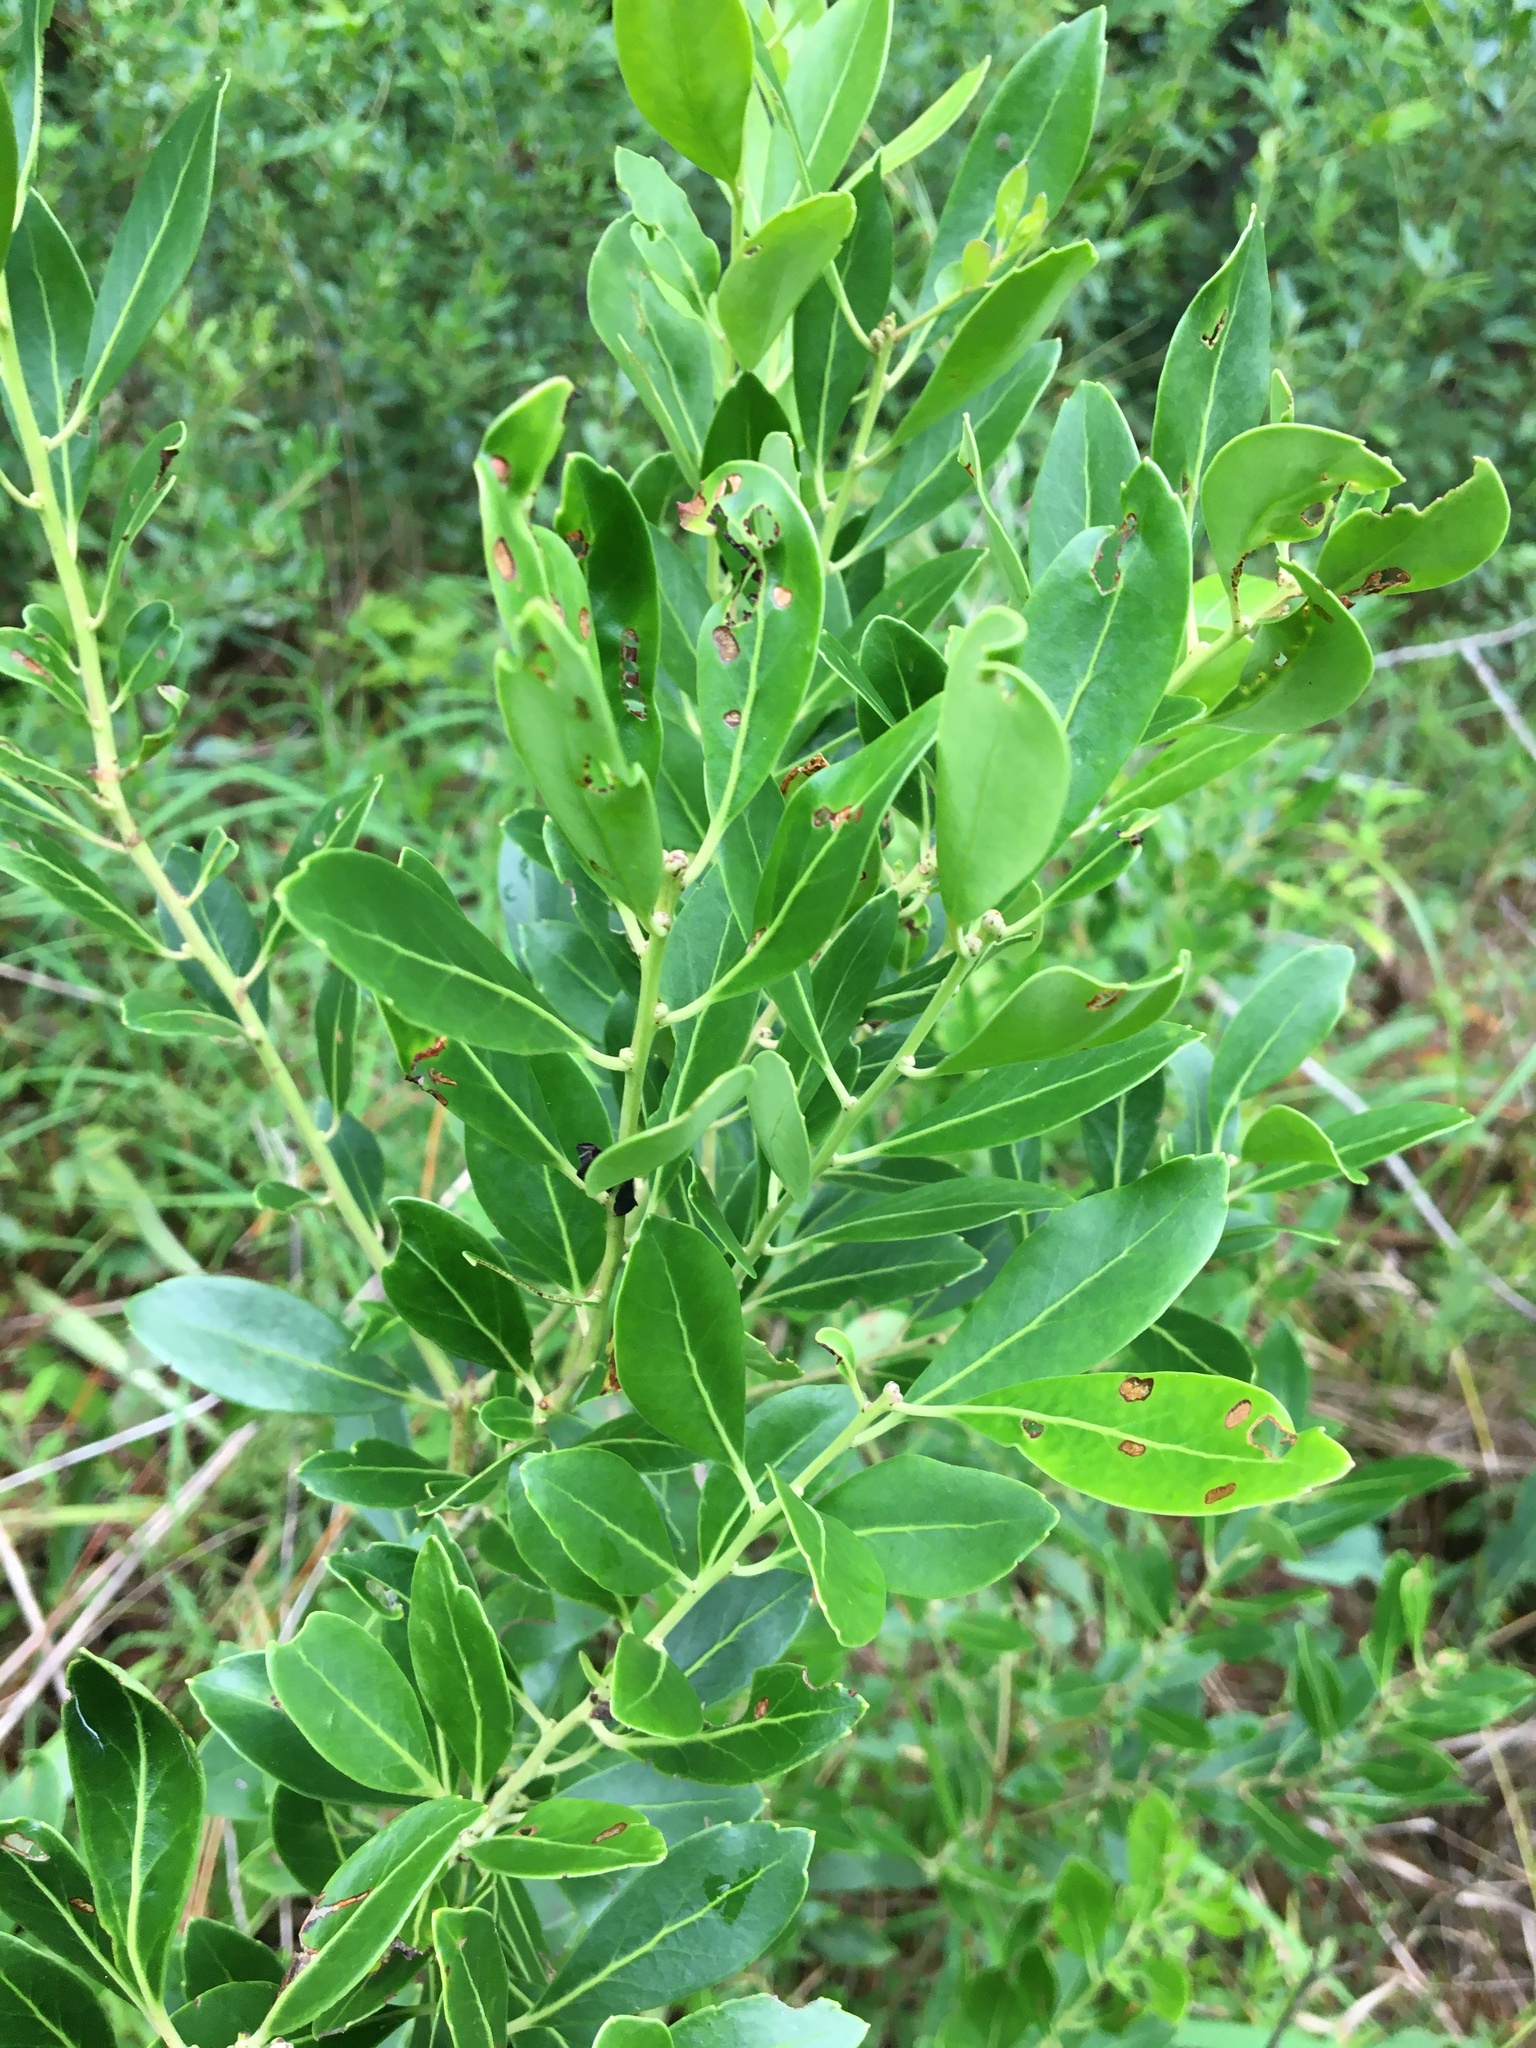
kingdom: Plantae
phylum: Tracheophyta
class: Magnoliopsida
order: Aquifoliales
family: Aquifoliaceae
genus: Ilex
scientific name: Ilex glabra
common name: Bitter gallberry
